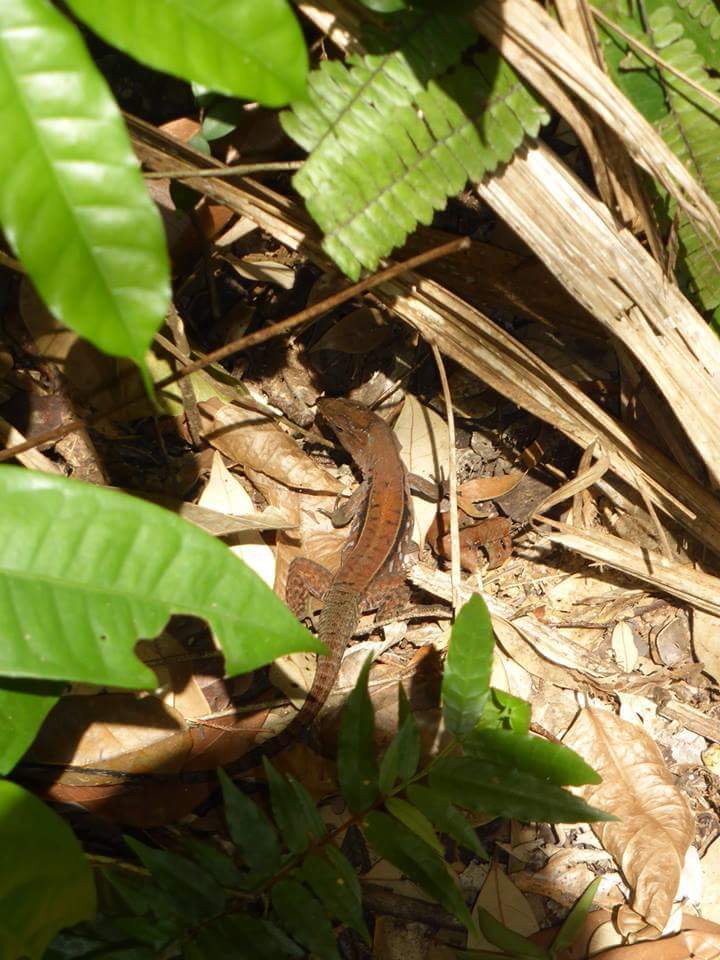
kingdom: Animalia
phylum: Chordata
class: Squamata
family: Teiidae
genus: Kentropyx
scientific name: Kentropyx calcarata
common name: Striped forest whiptail
